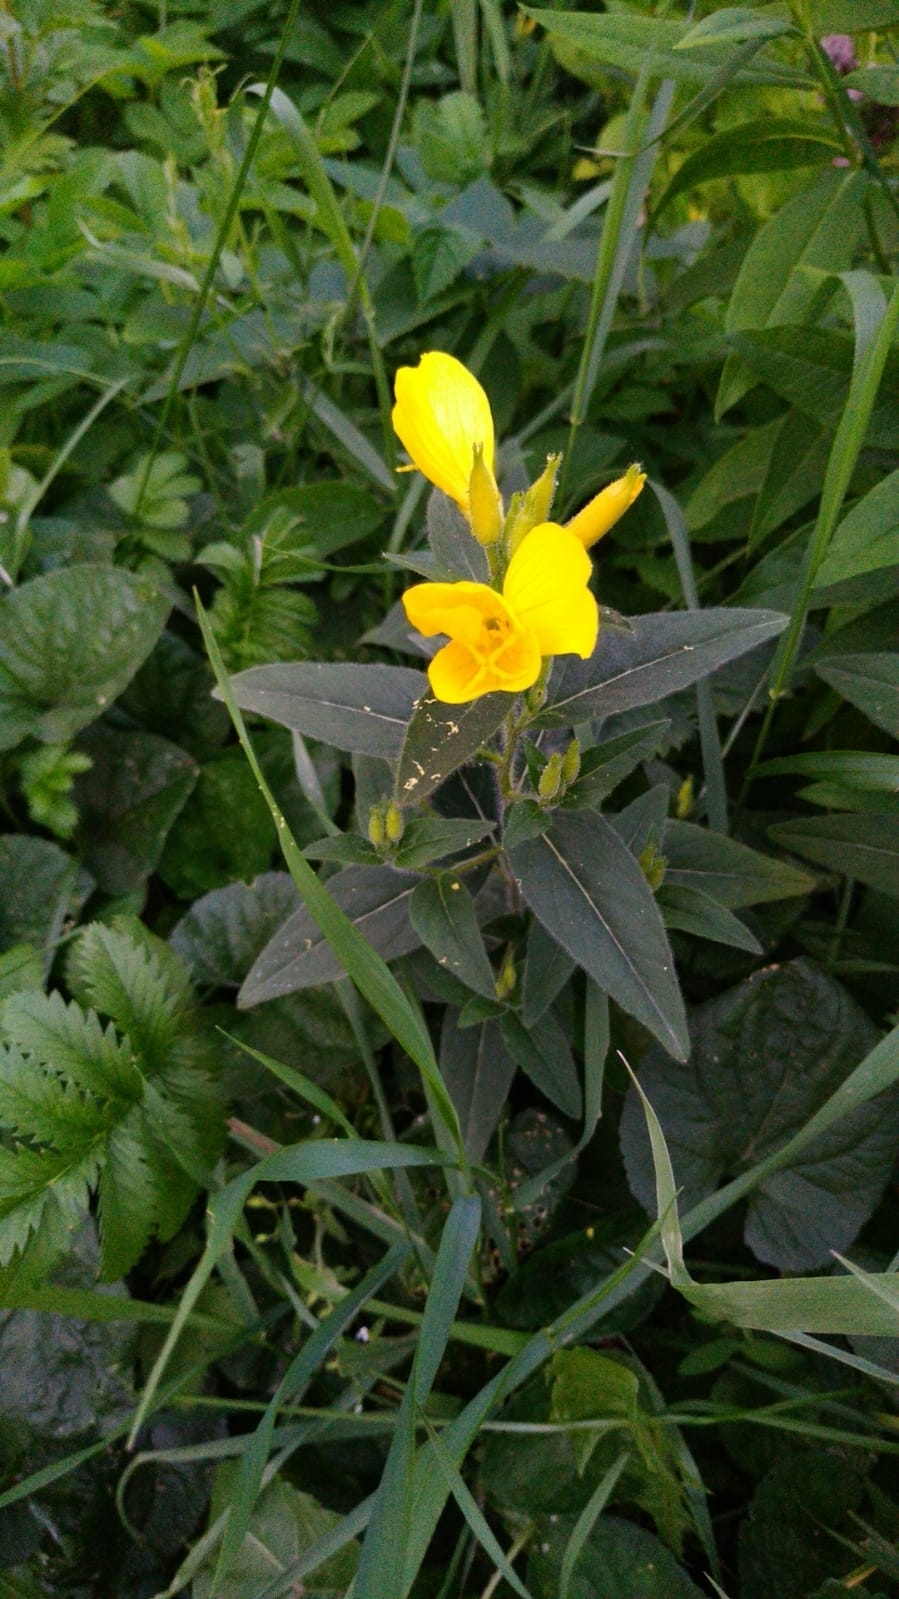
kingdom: Plantae
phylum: Tracheophyta
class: Magnoliopsida
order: Myrtales
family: Onagraceae
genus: Oenothera
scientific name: Oenothera pilosella
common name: Finely-pilose evening-primrose
